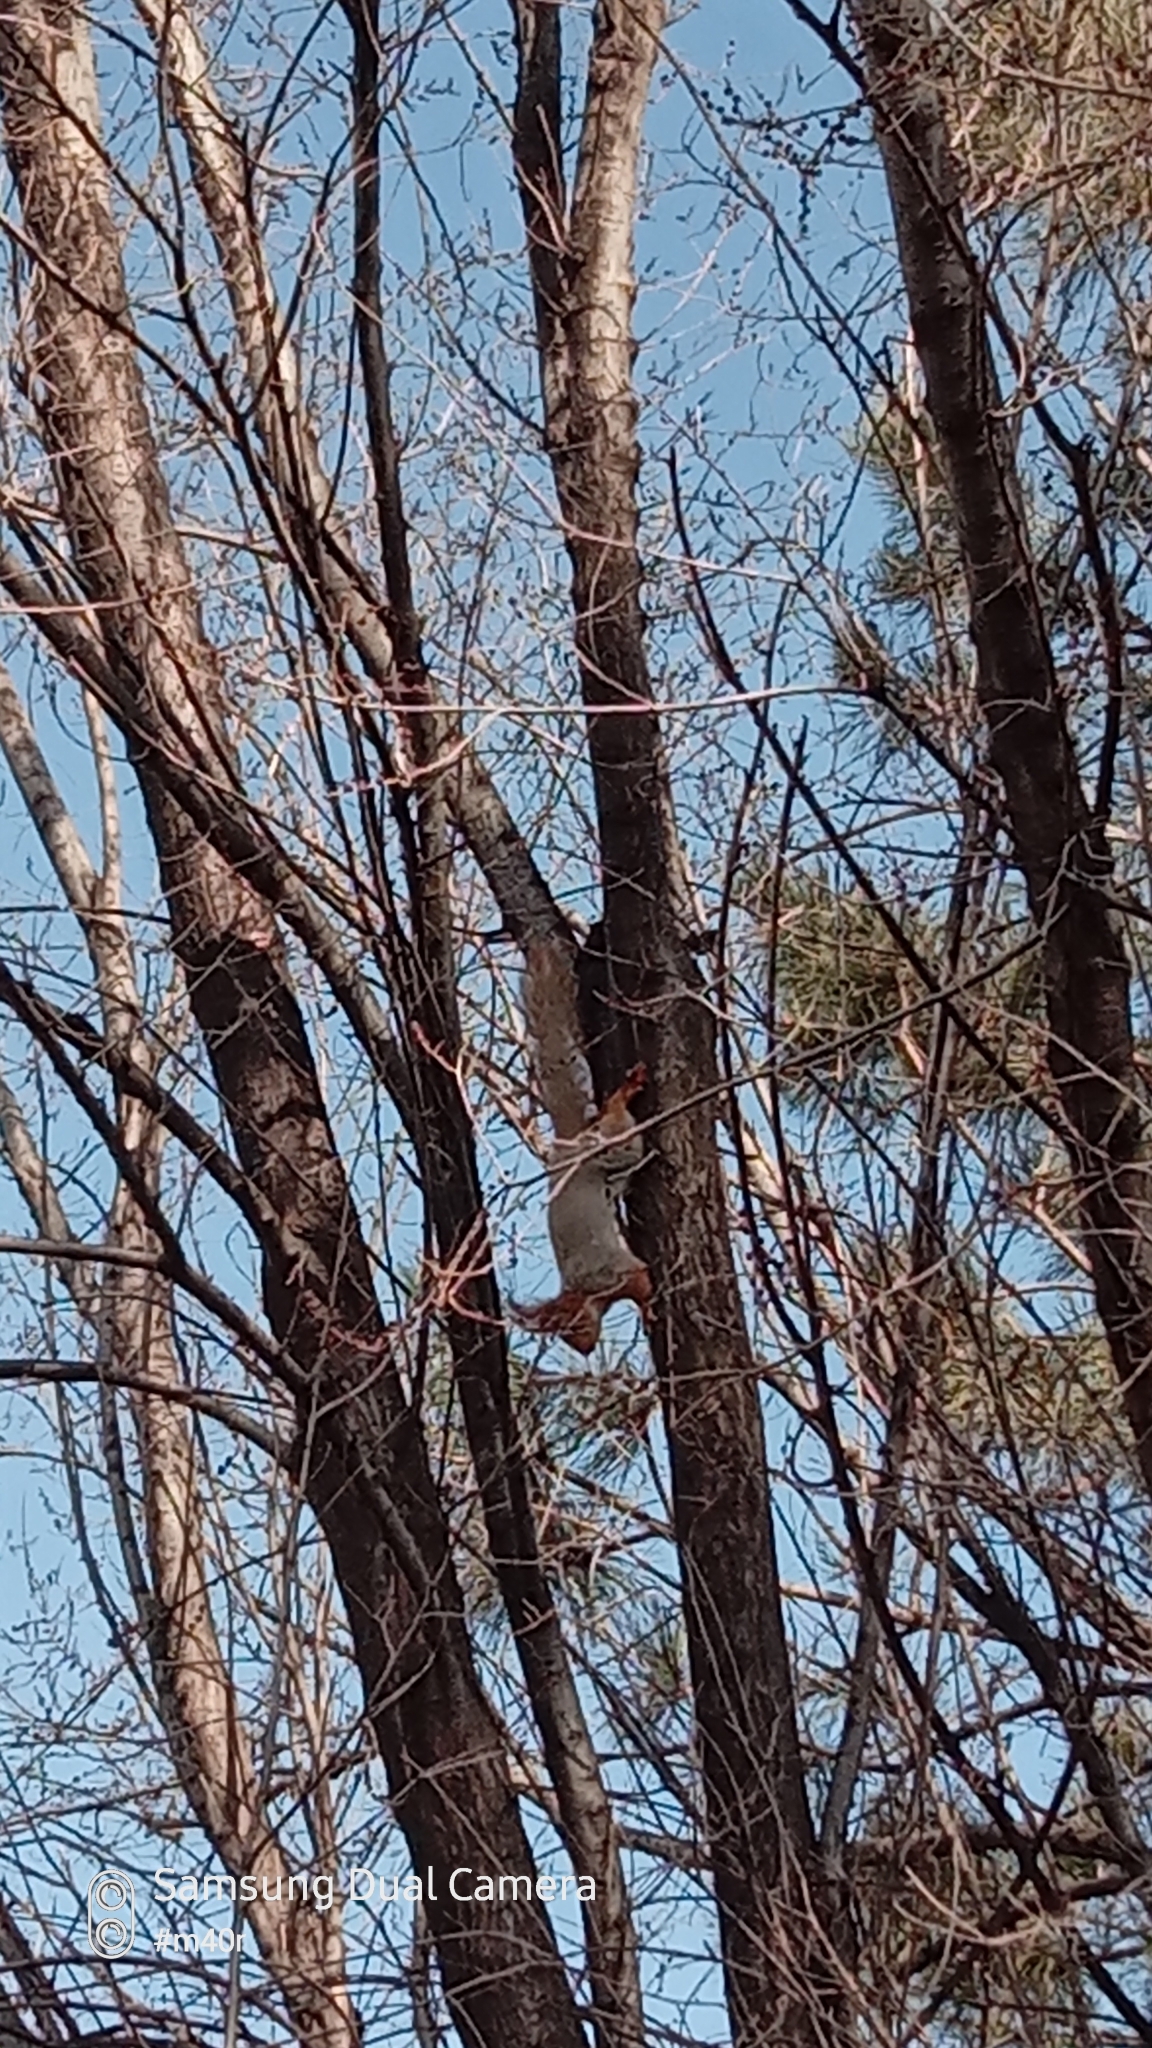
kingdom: Animalia
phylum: Chordata
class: Mammalia
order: Rodentia
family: Sciuridae
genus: Sciurus
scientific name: Sciurus vulgaris
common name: Eurasian red squirrel
